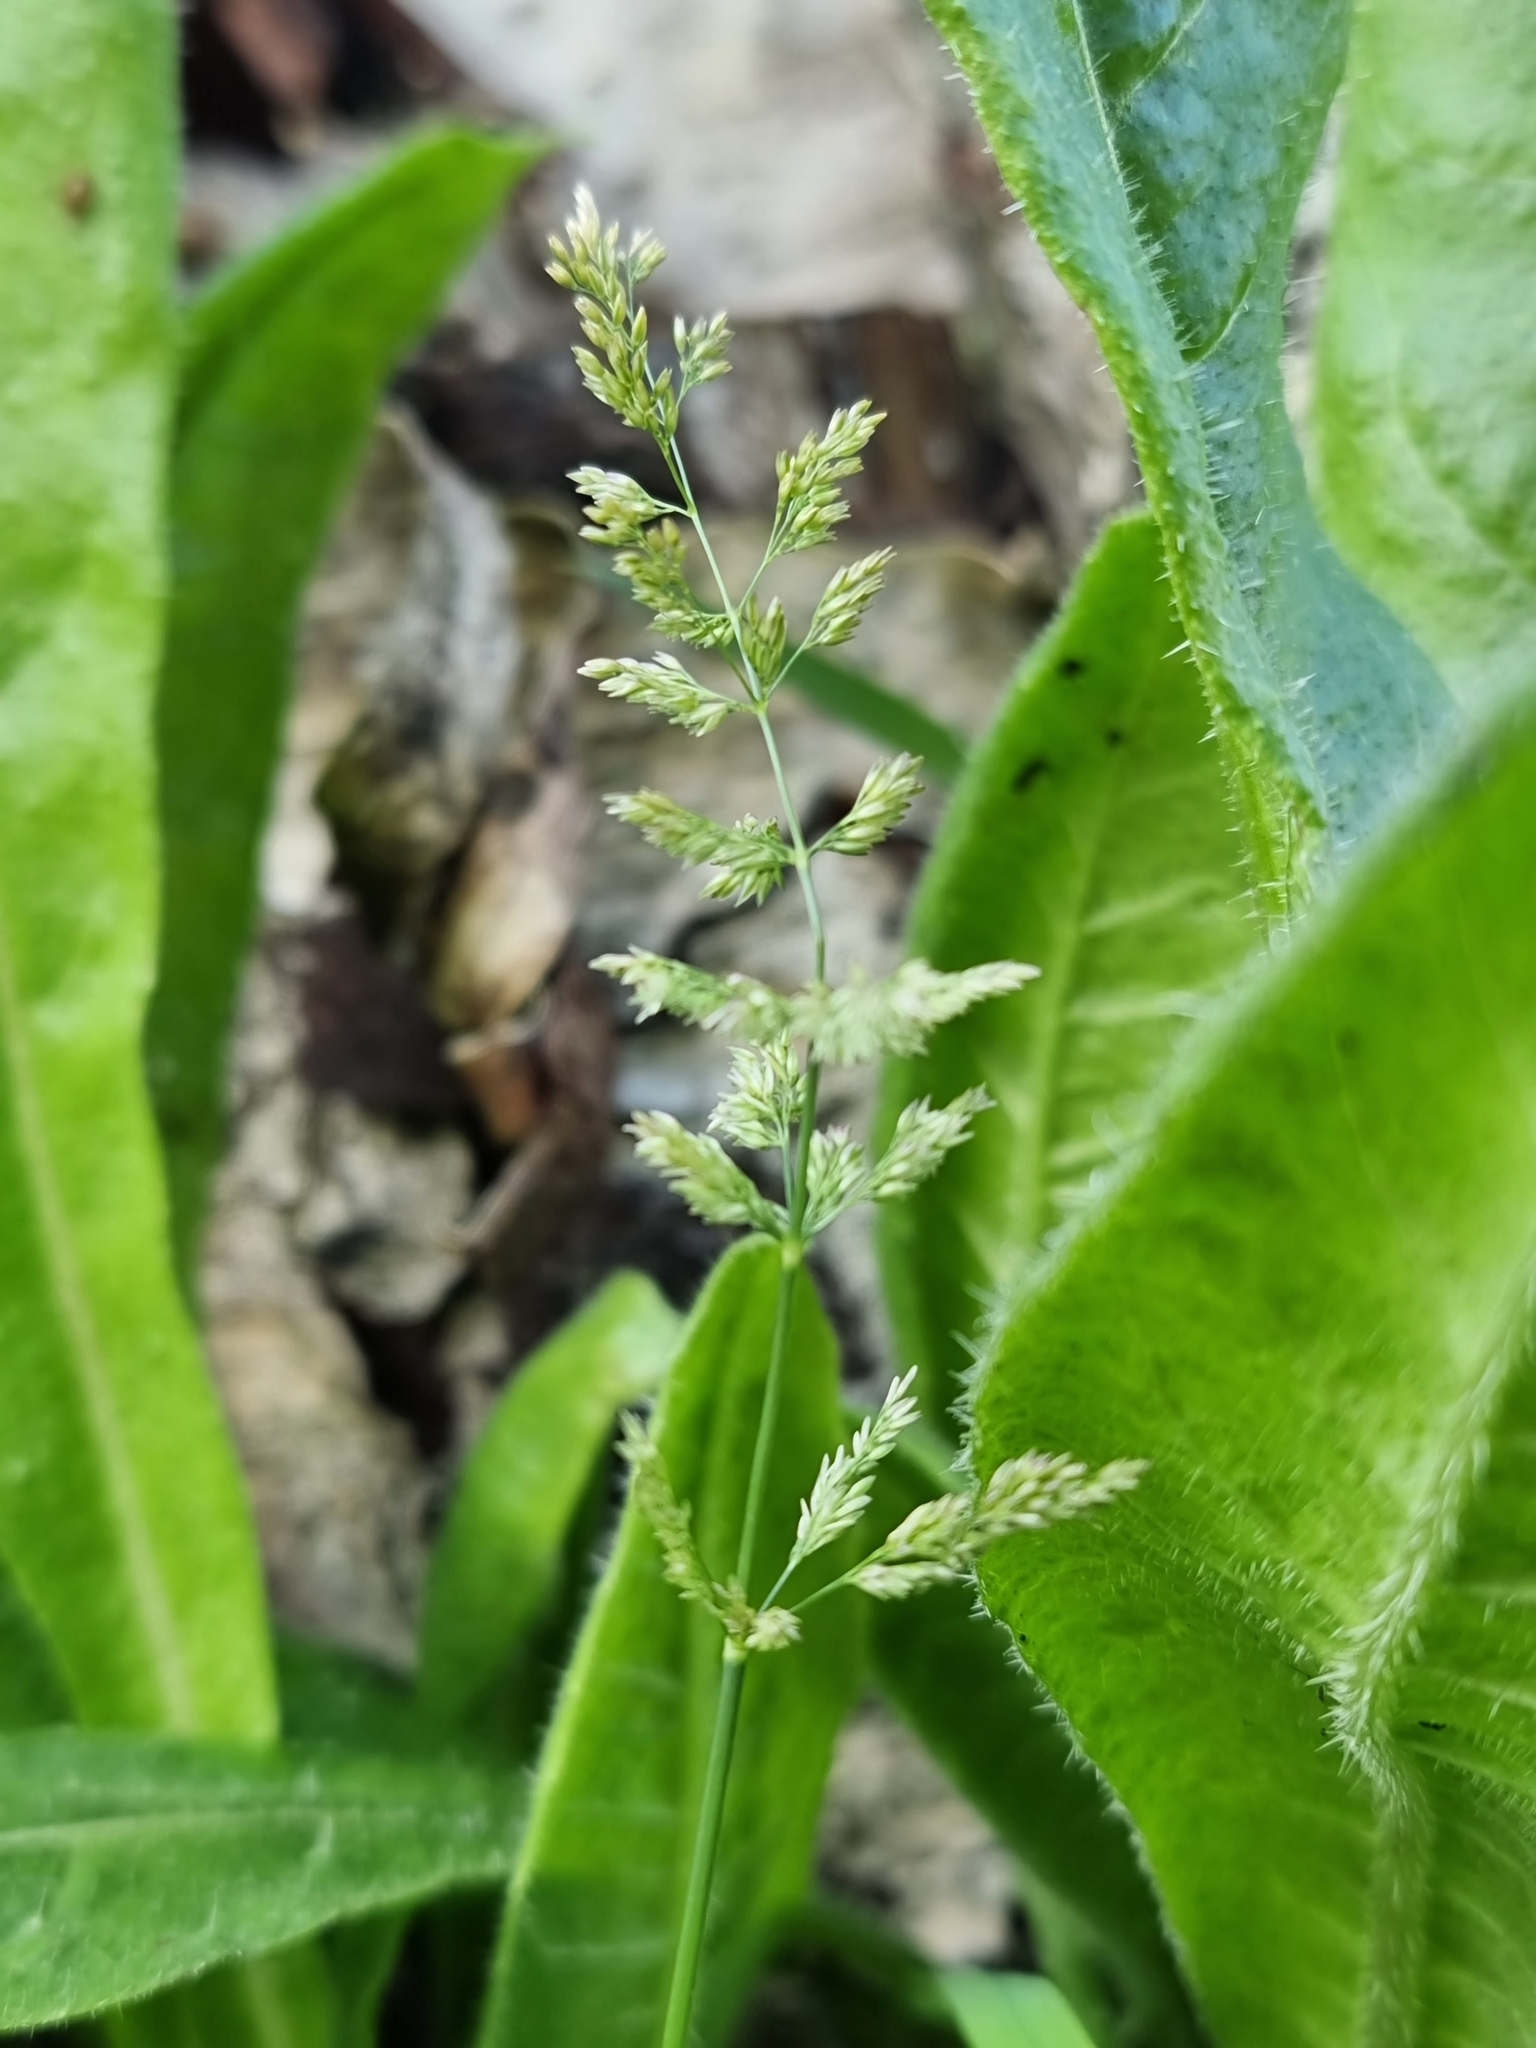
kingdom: Plantae
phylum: Tracheophyta
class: Liliopsida
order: Poales
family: Poaceae
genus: Polypogon
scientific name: Polypogon viridis
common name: Water bent
